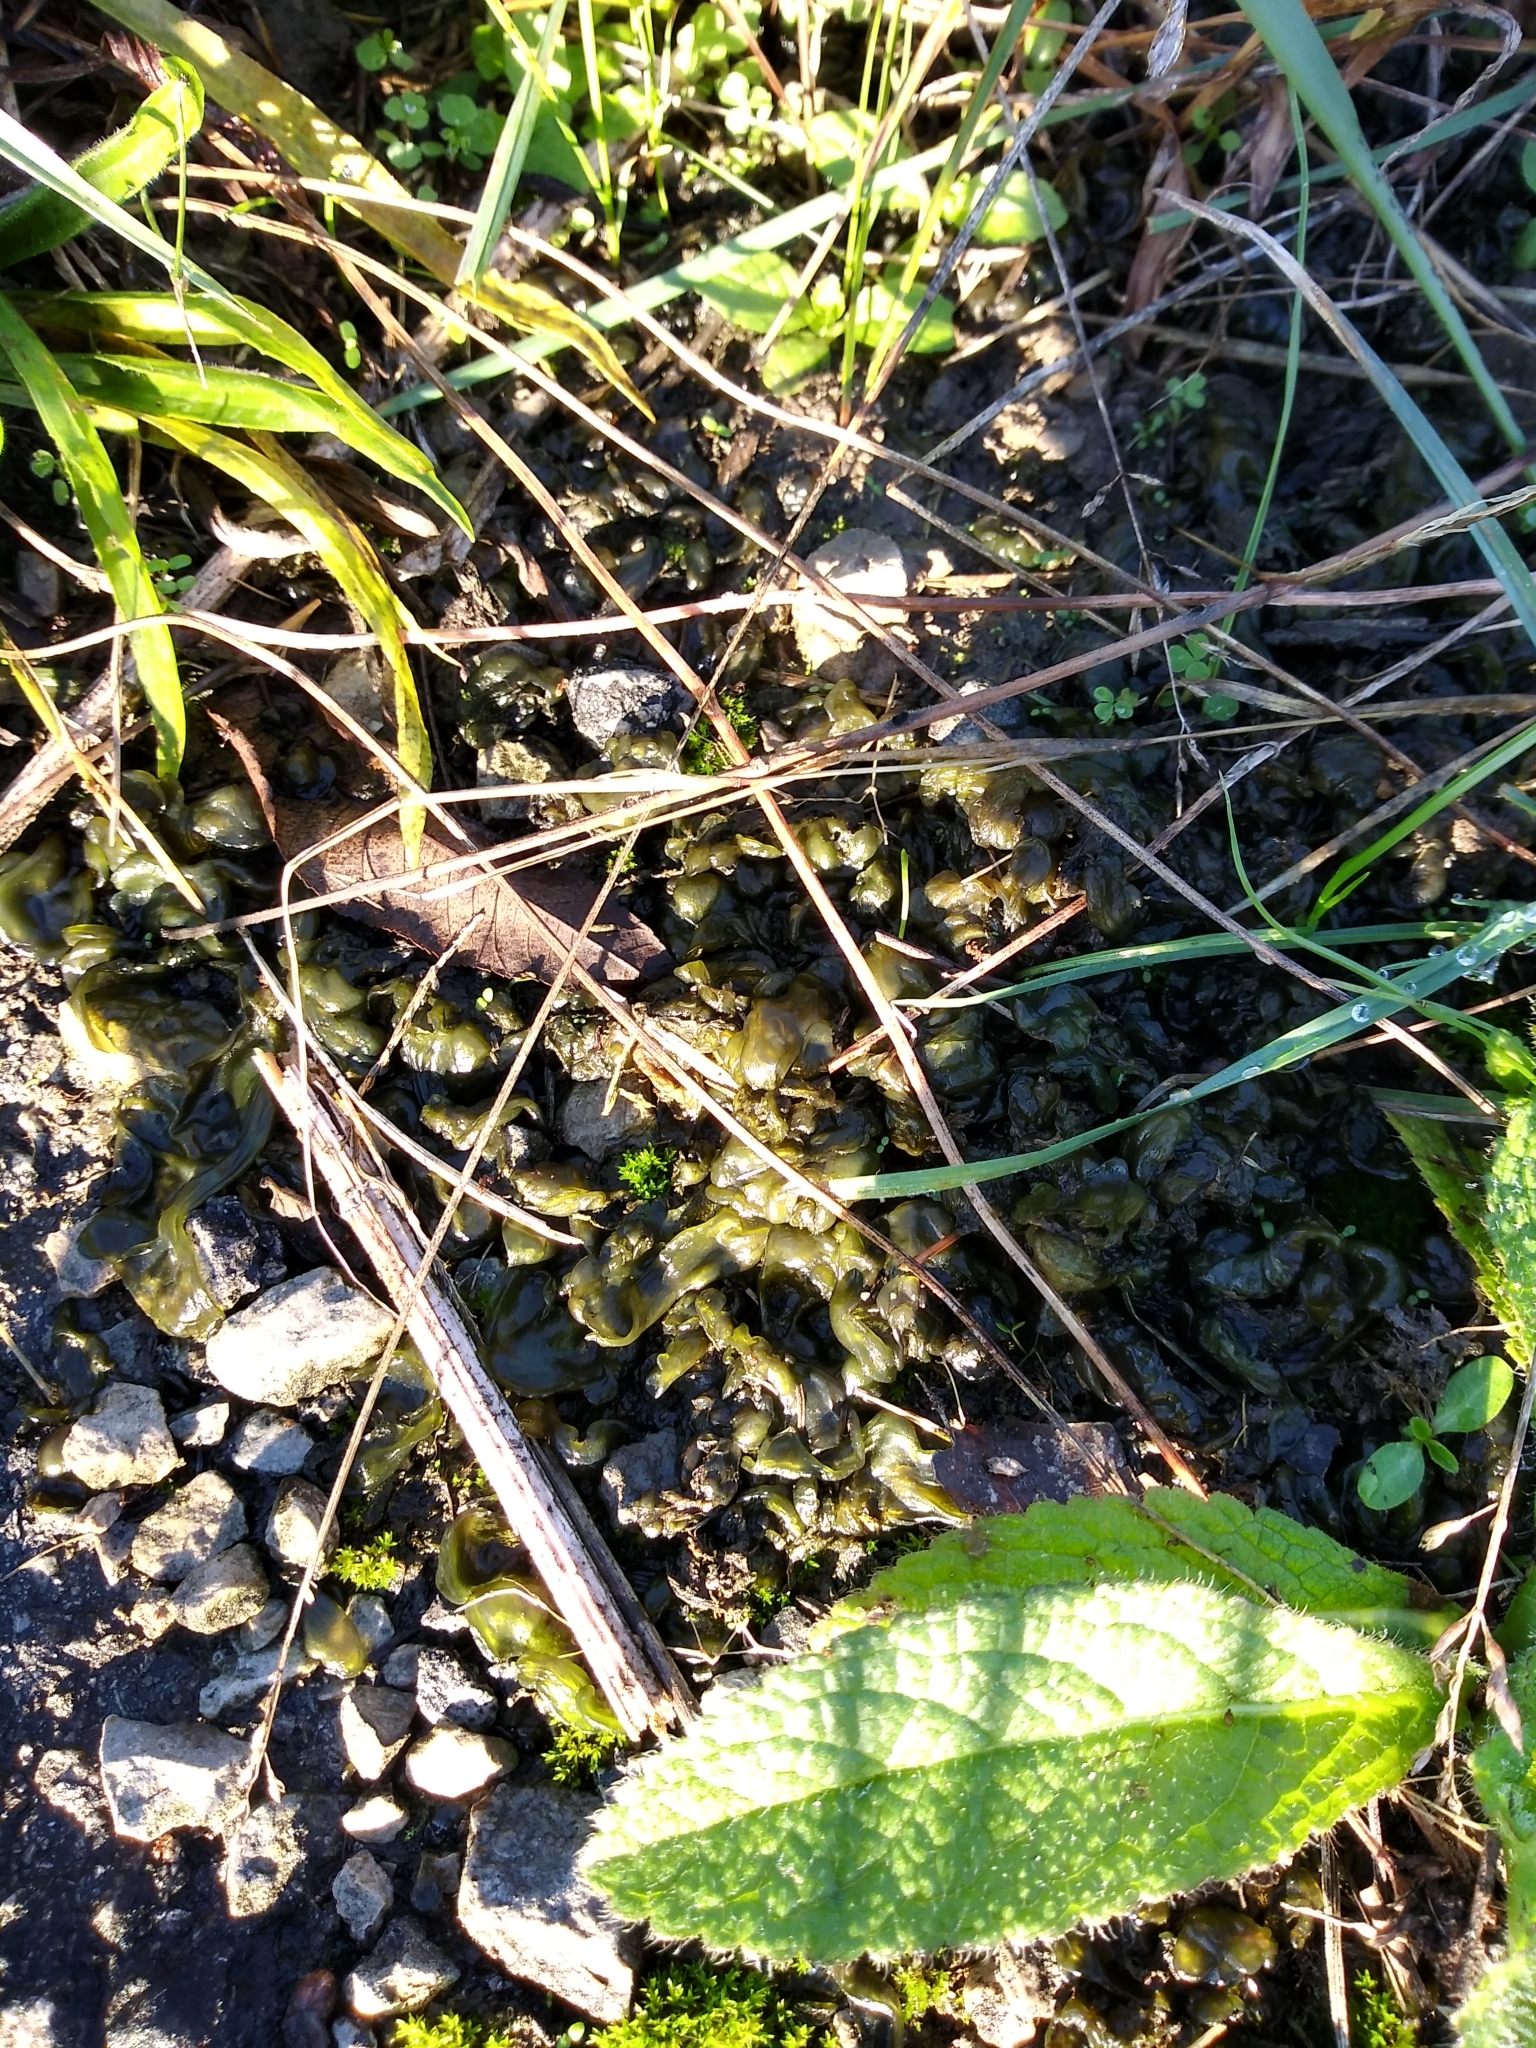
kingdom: Bacteria
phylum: Cyanobacteria
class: Cyanobacteriia
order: Cyanobacteriales
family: Nostocaceae
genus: Nostoc
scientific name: Nostoc commune
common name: Star jelly
